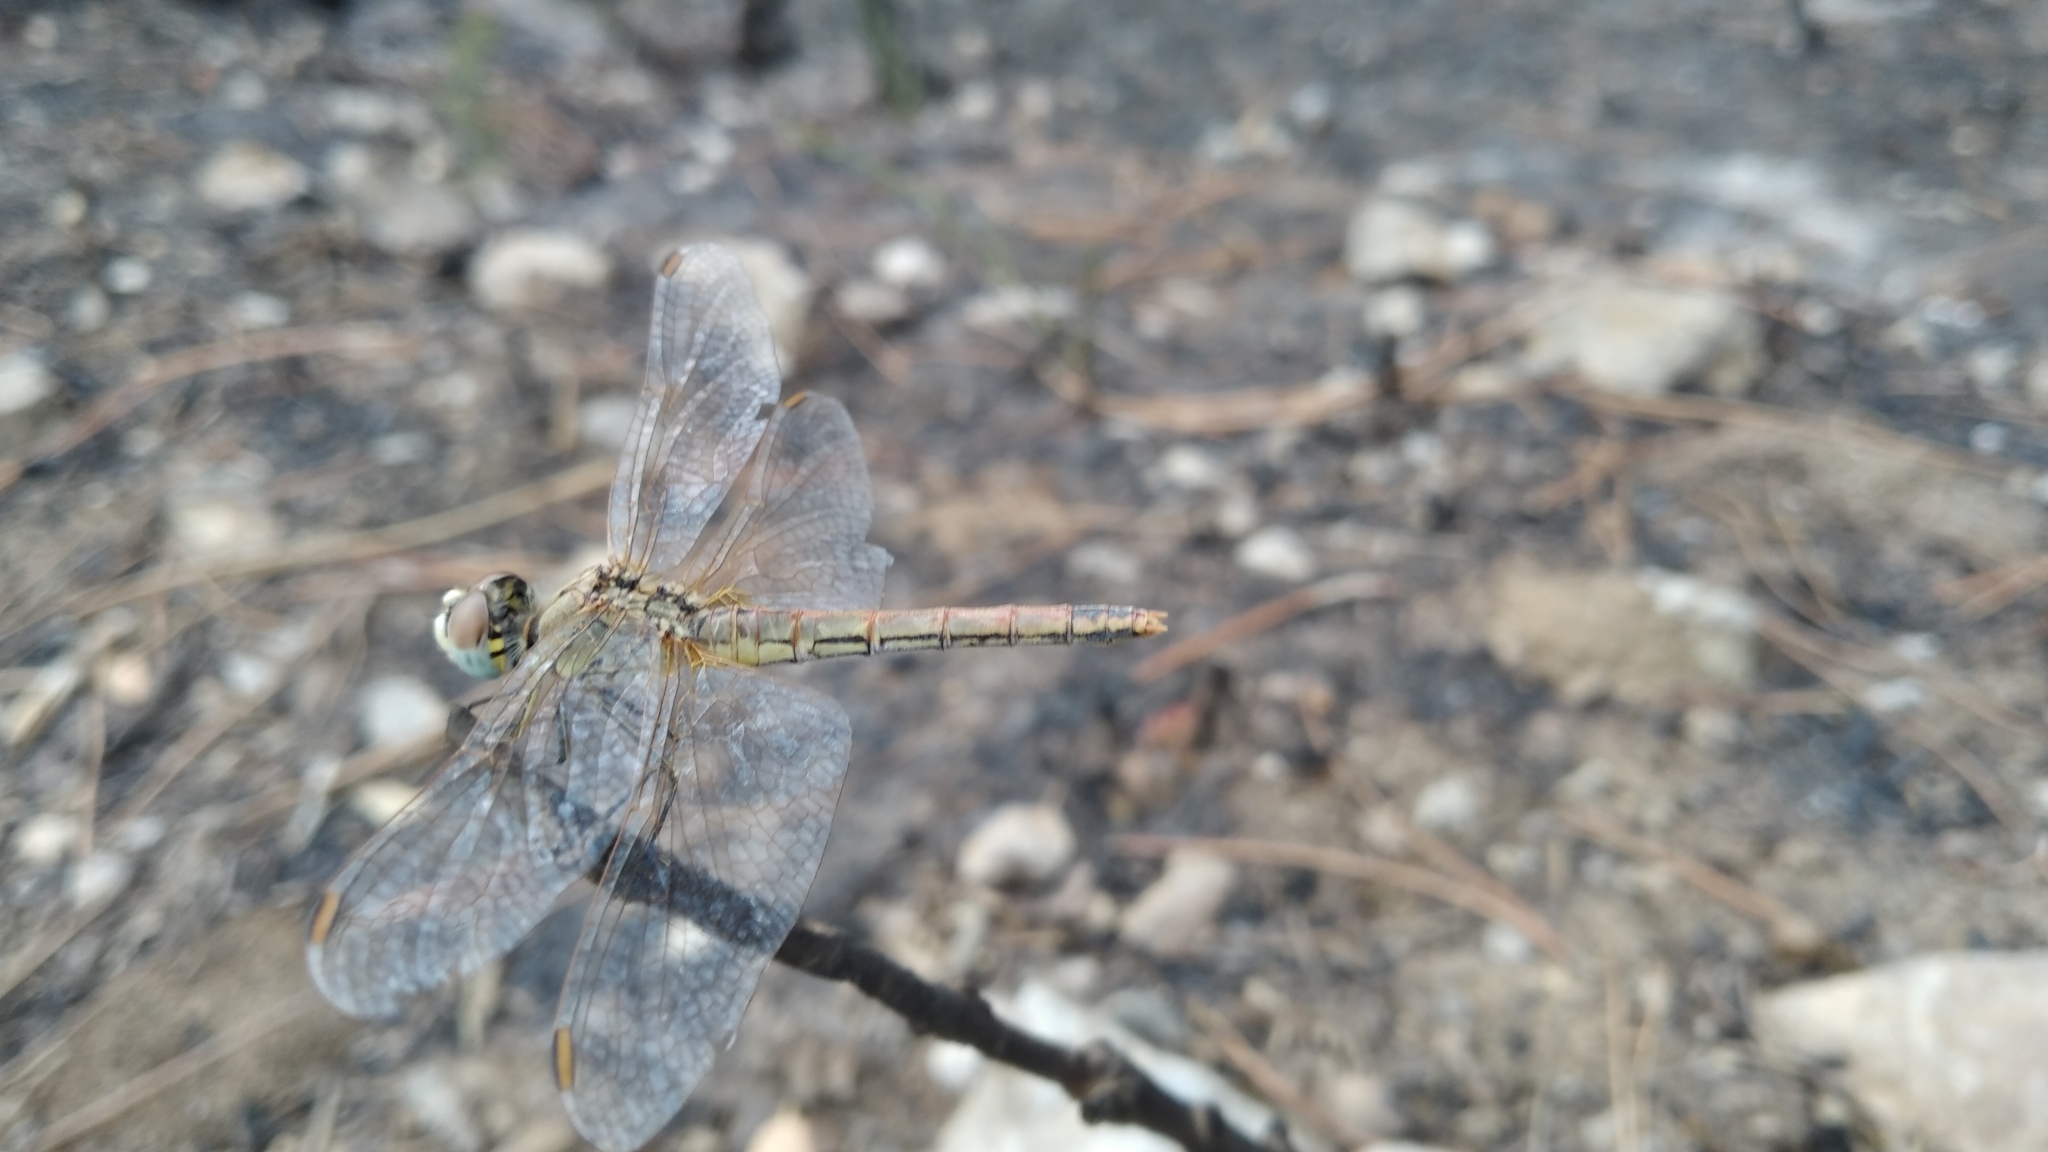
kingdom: Animalia
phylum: Arthropoda
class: Insecta
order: Odonata
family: Libellulidae
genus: Sympetrum
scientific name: Sympetrum fonscolombii
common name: Red-veined darter
